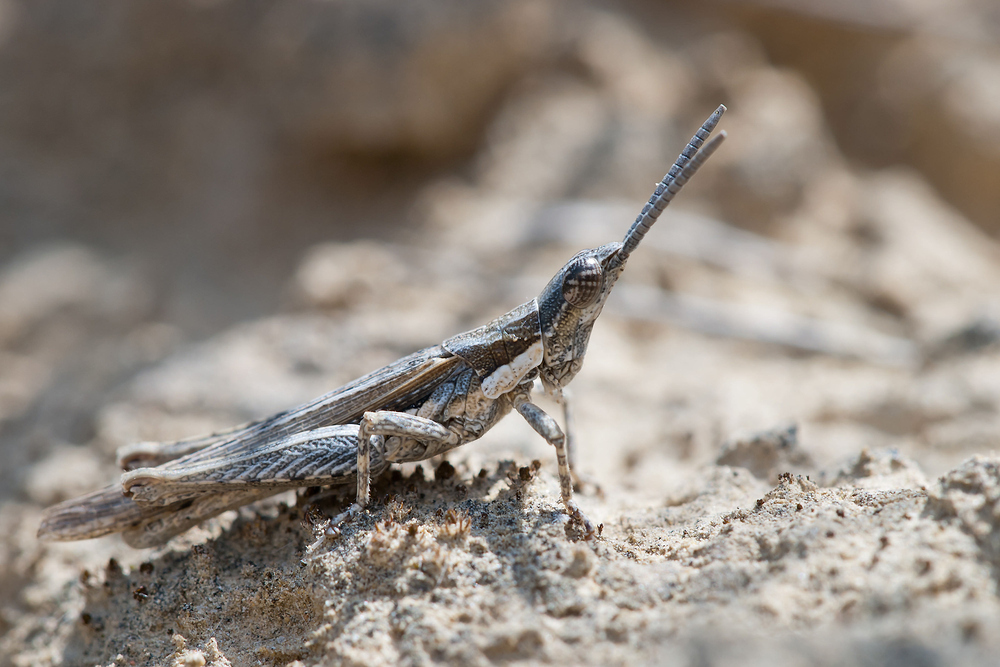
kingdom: Animalia
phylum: Arthropoda
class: Insecta
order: Orthoptera
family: Pyrgomorphidae
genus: Pyrgomorpha
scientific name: Pyrgomorpha conica
